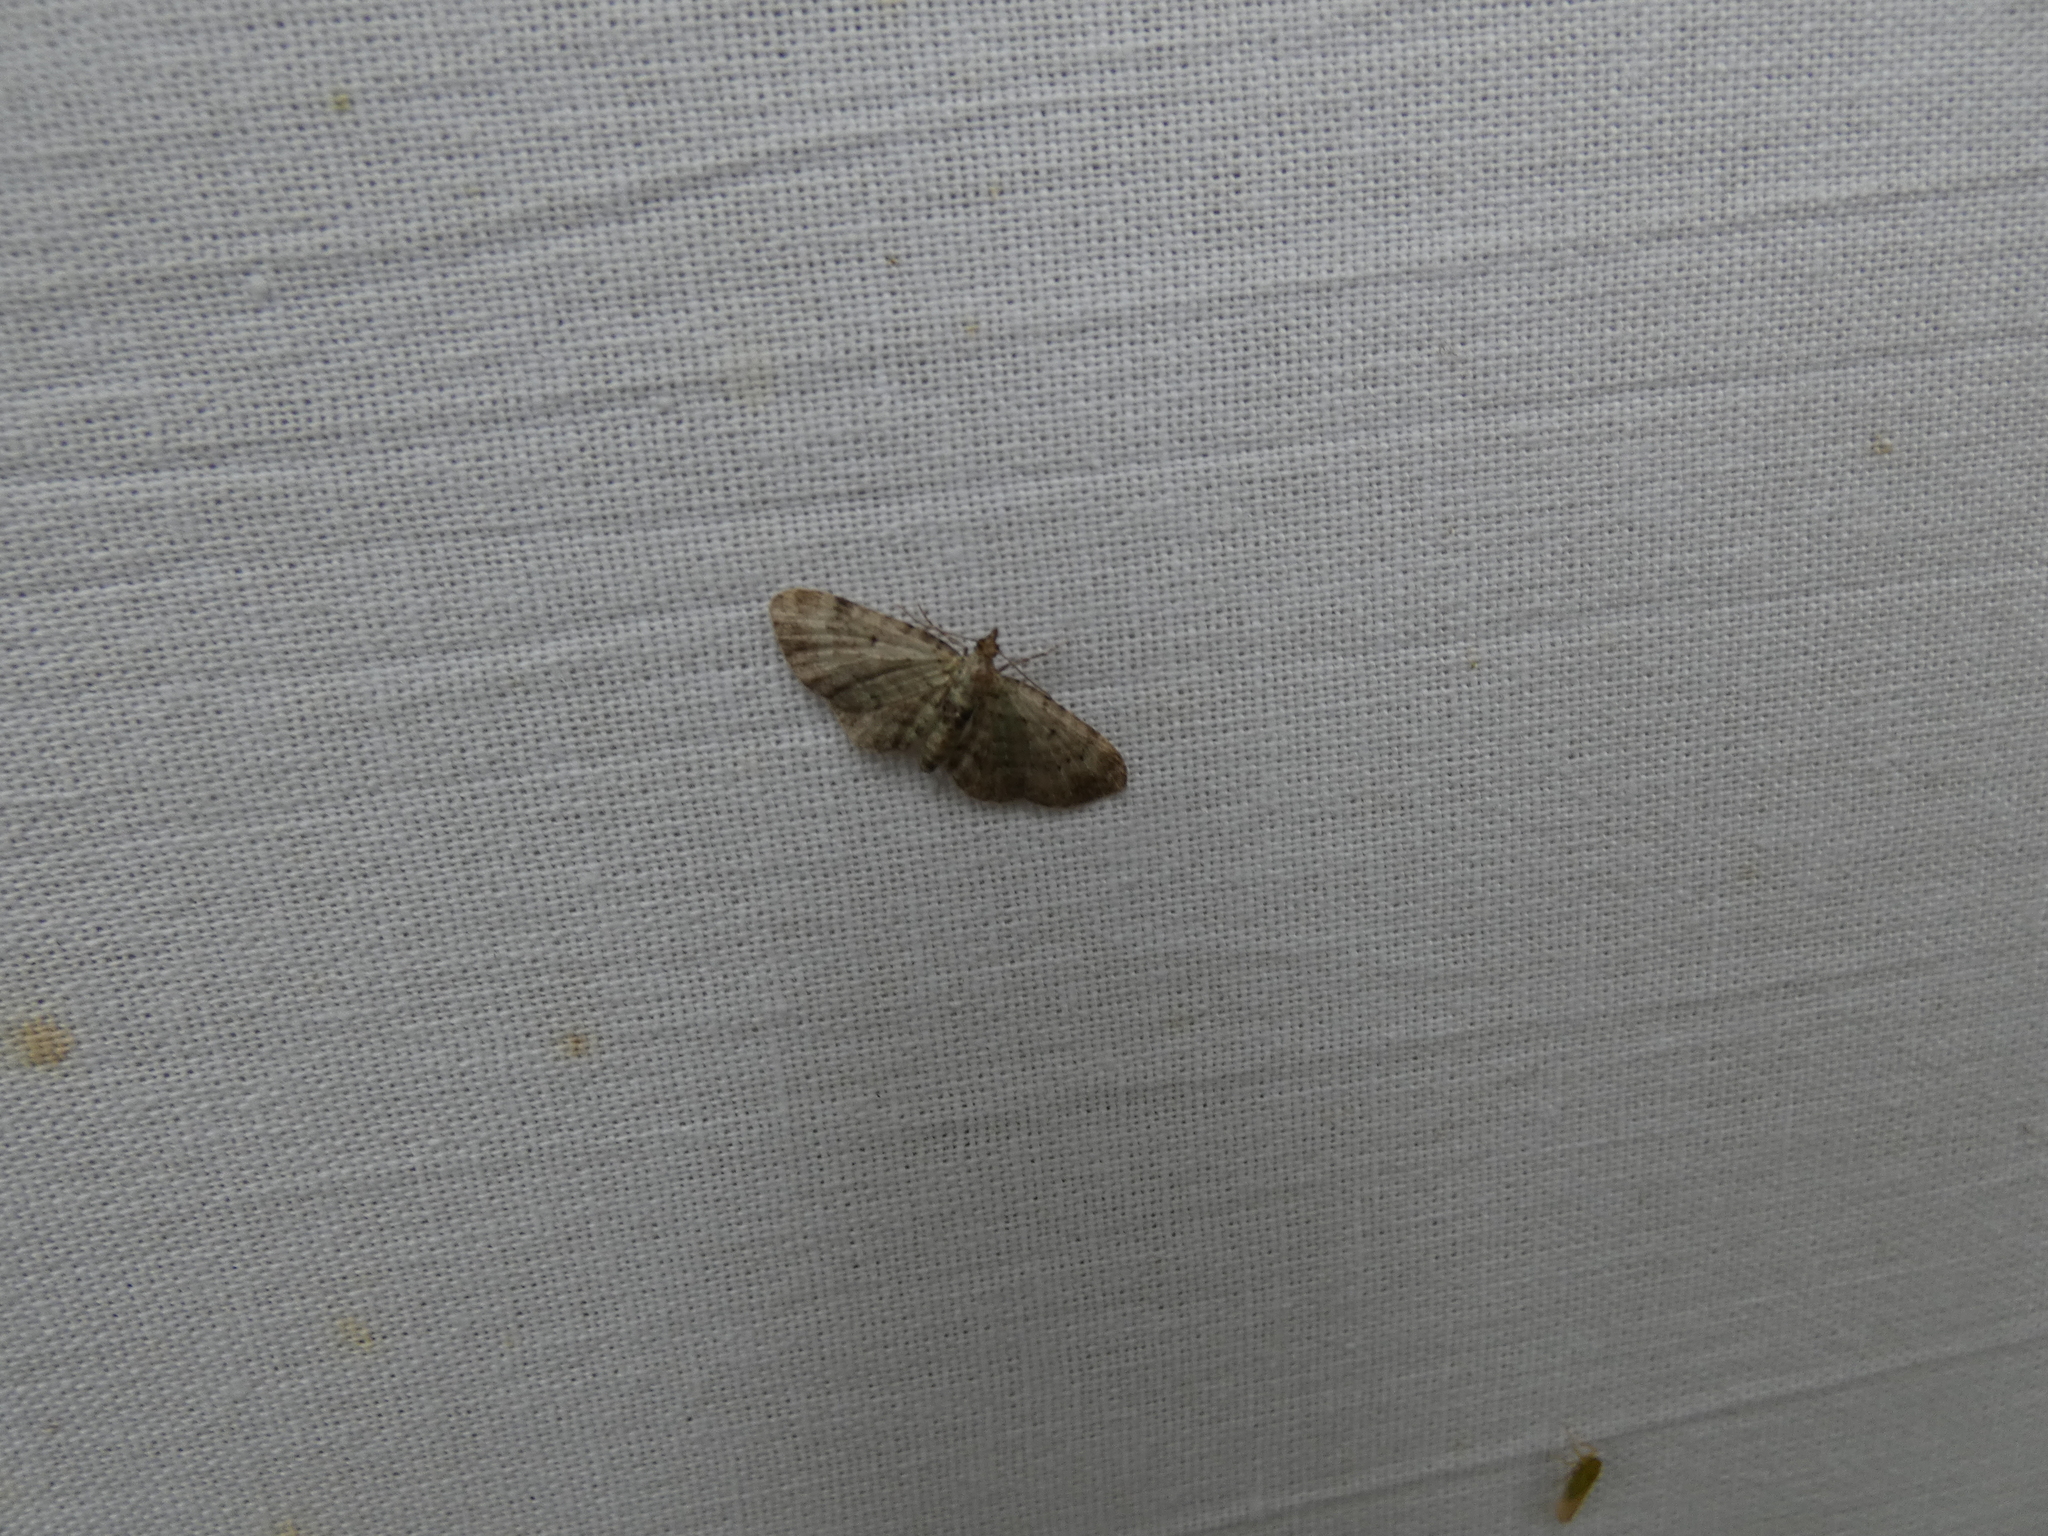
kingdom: Animalia
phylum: Arthropoda
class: Insecta
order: Lepidoptera
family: Geometridae
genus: Pasiphila
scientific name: Pasiphila debiliata
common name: Bilberry pug
